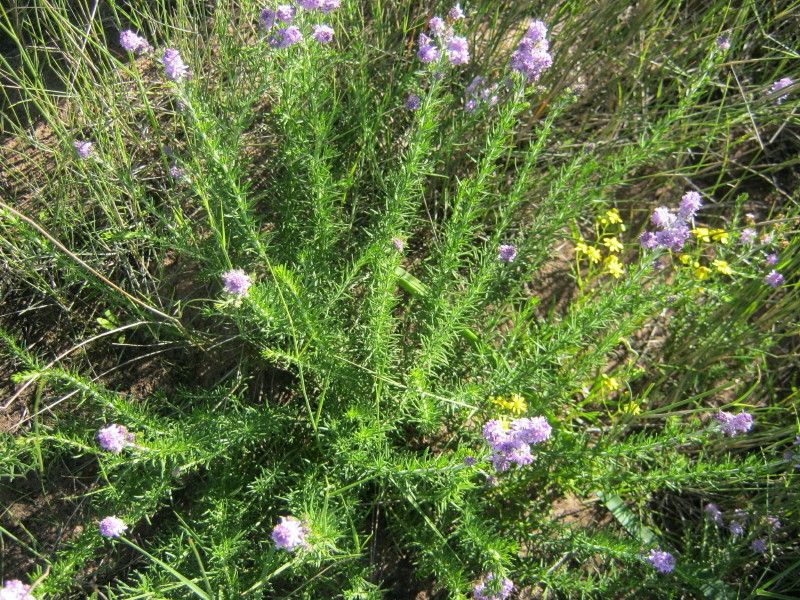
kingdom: Plantae
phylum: Tracheophyta
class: Magnoliopsida
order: Lamiales
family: Scrophulariaceae
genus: Selago
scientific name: Selago villicaulis
